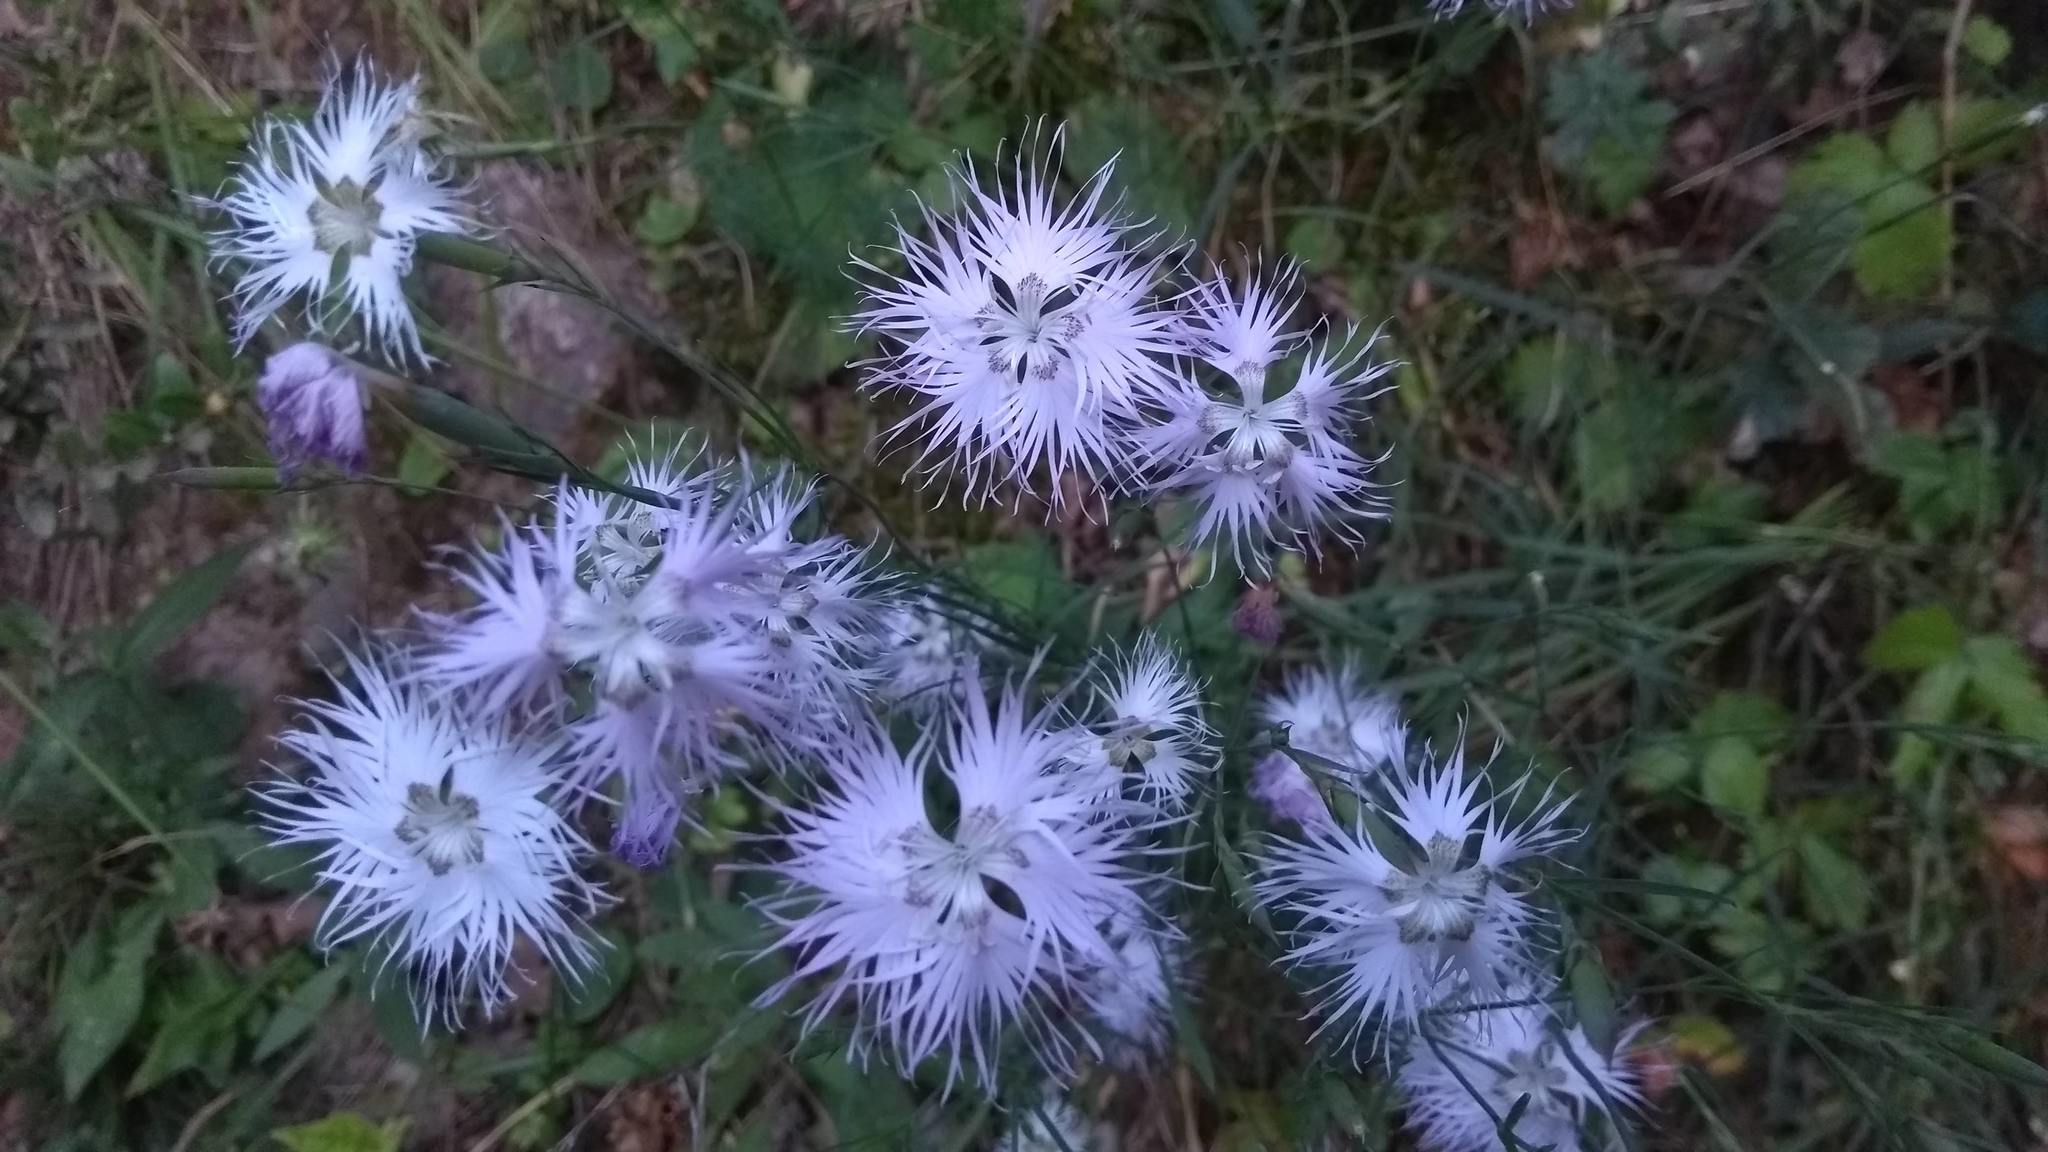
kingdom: Plantae
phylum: Tracheophyta
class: Magnoliopsida
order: Caryophyllales
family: Caryophyllaceae
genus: Dianthus
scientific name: Dianthus hyssopifolius
